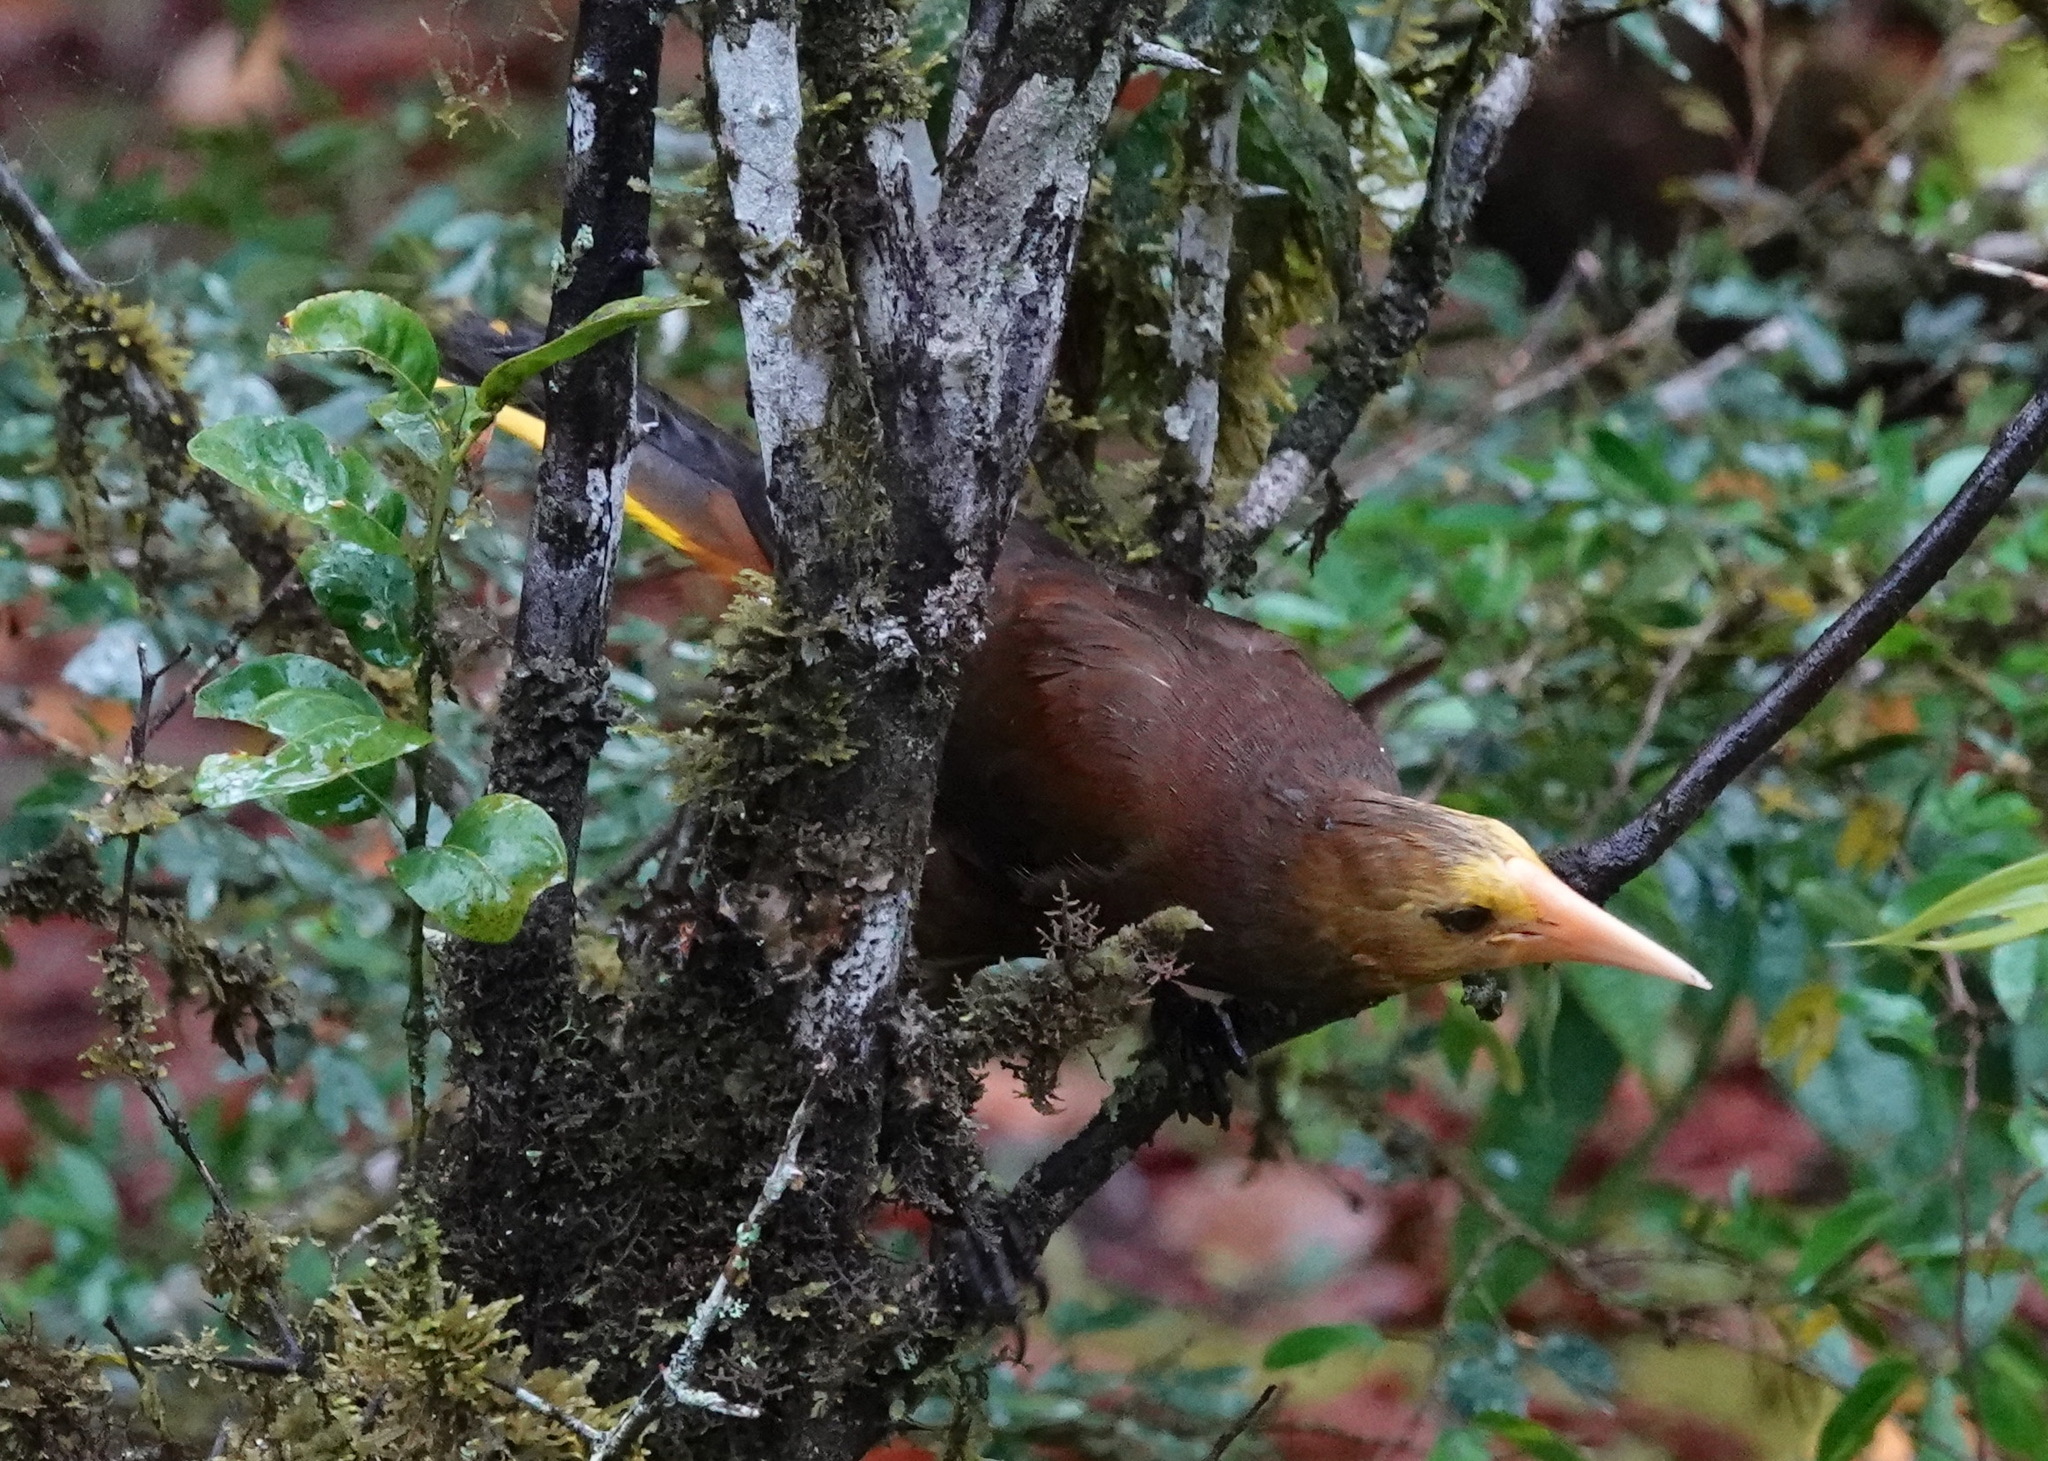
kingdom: Animalia
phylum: Chordata
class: Aves
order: Passeriformes
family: Icteridae
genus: Psarocolius
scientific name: Psarocolius angustifrons
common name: Russet-backed oropendola
